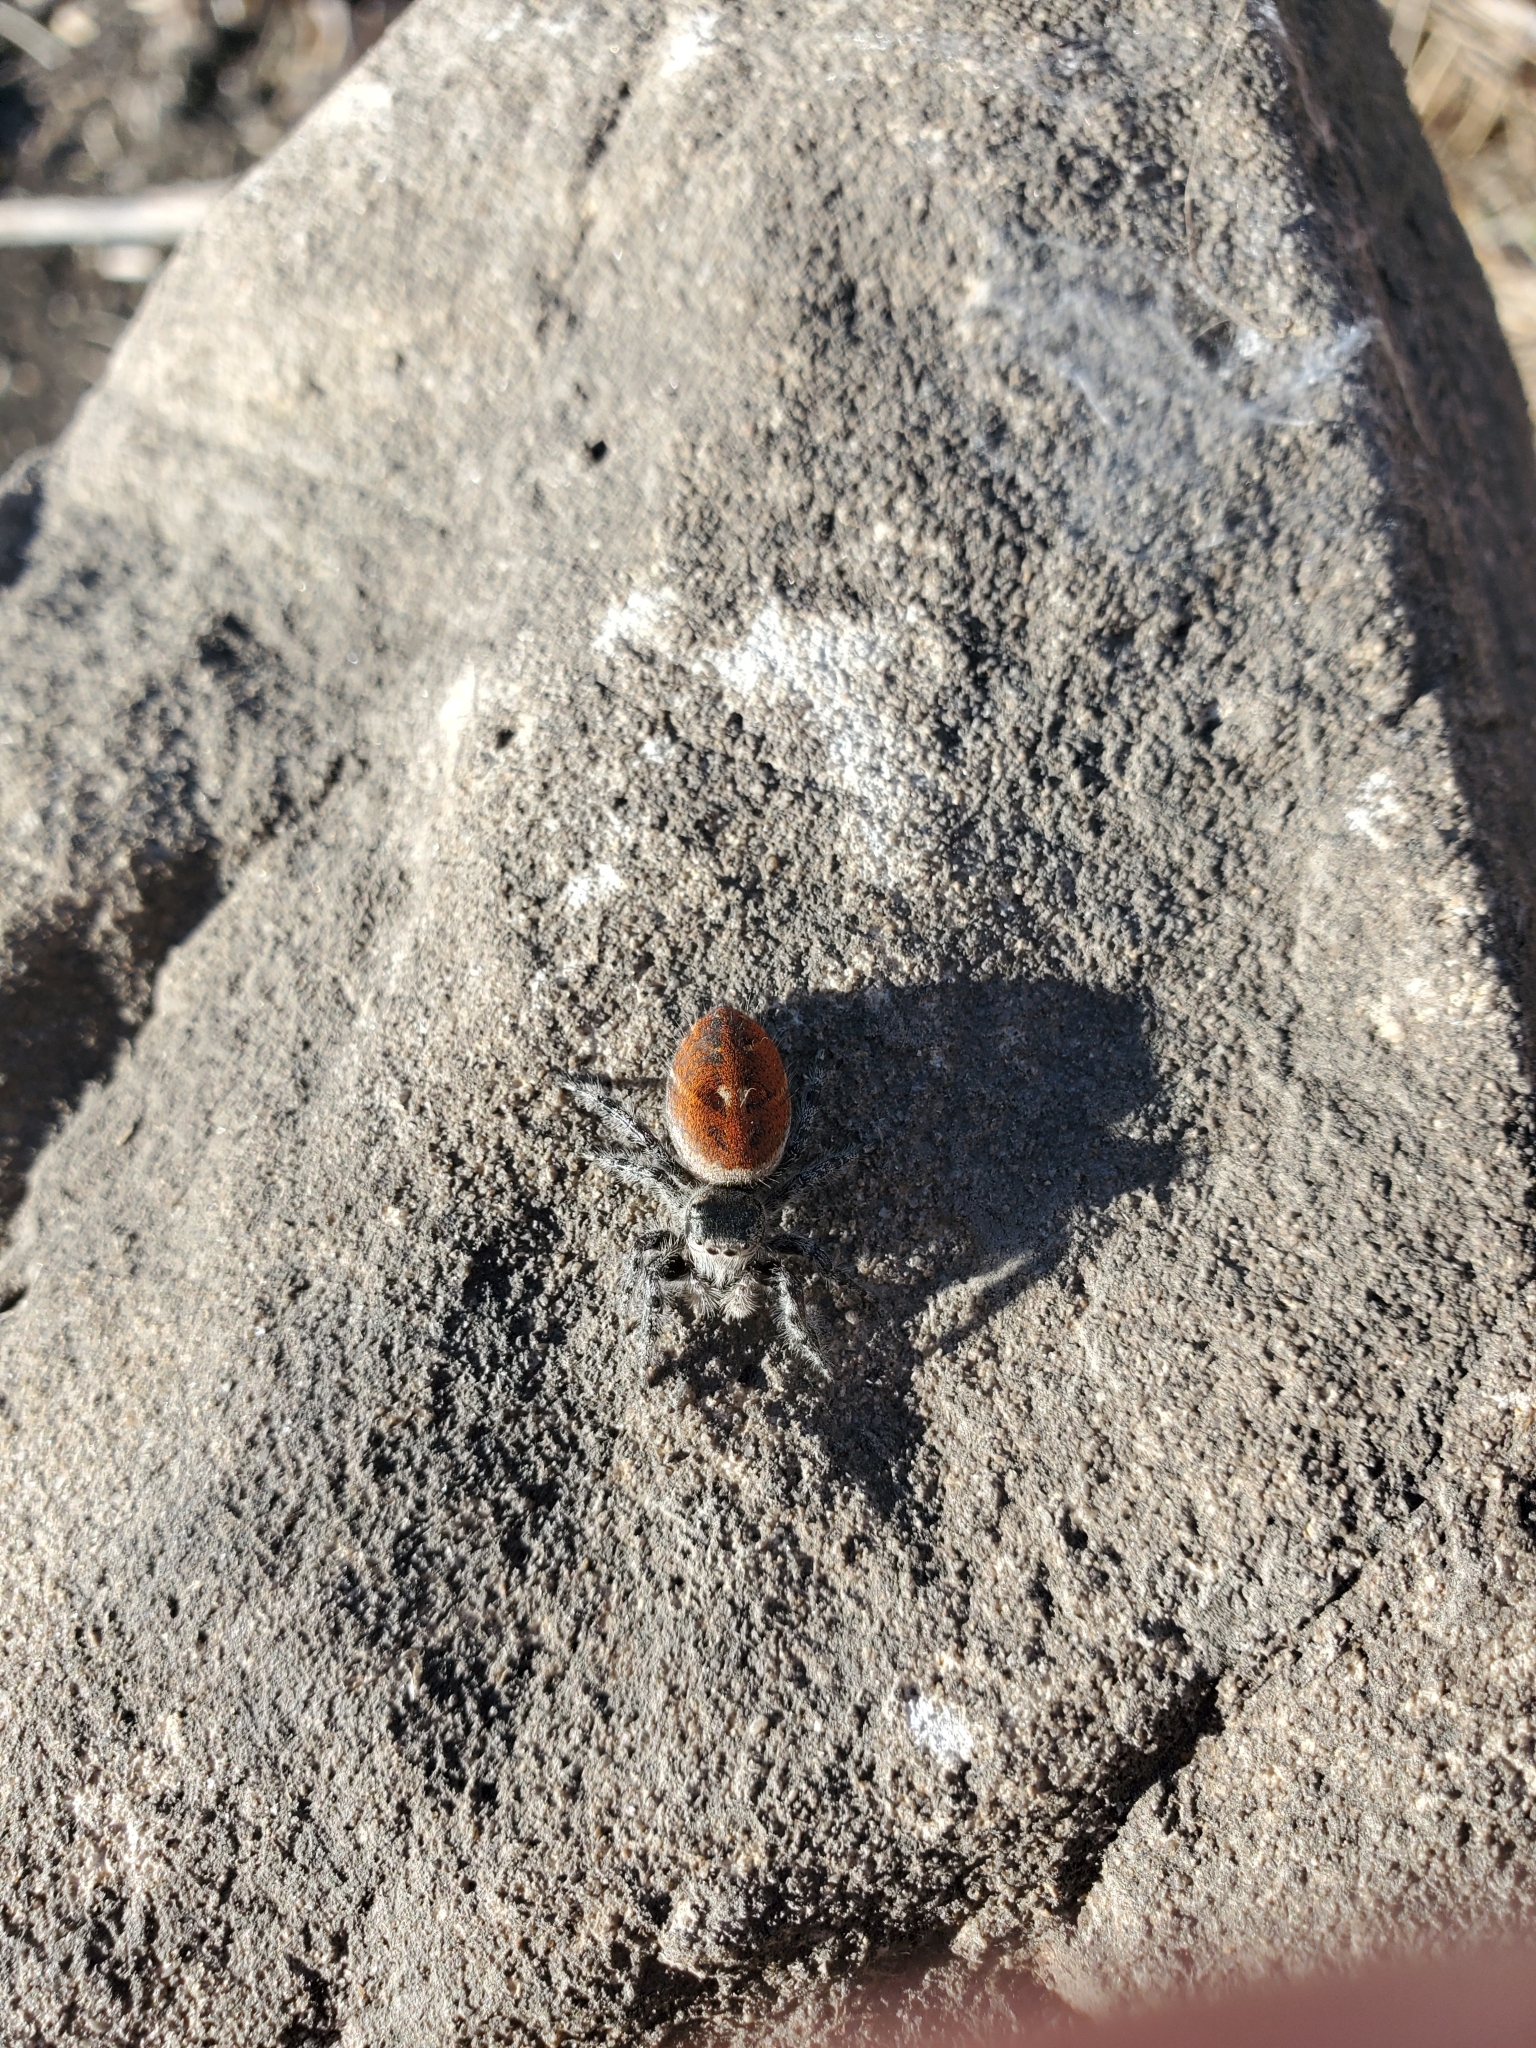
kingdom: Animalia
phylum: Arthropoda
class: Arachnida
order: Araneae
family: Salticidae
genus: Phidippus
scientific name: Phidippus adumbratus
